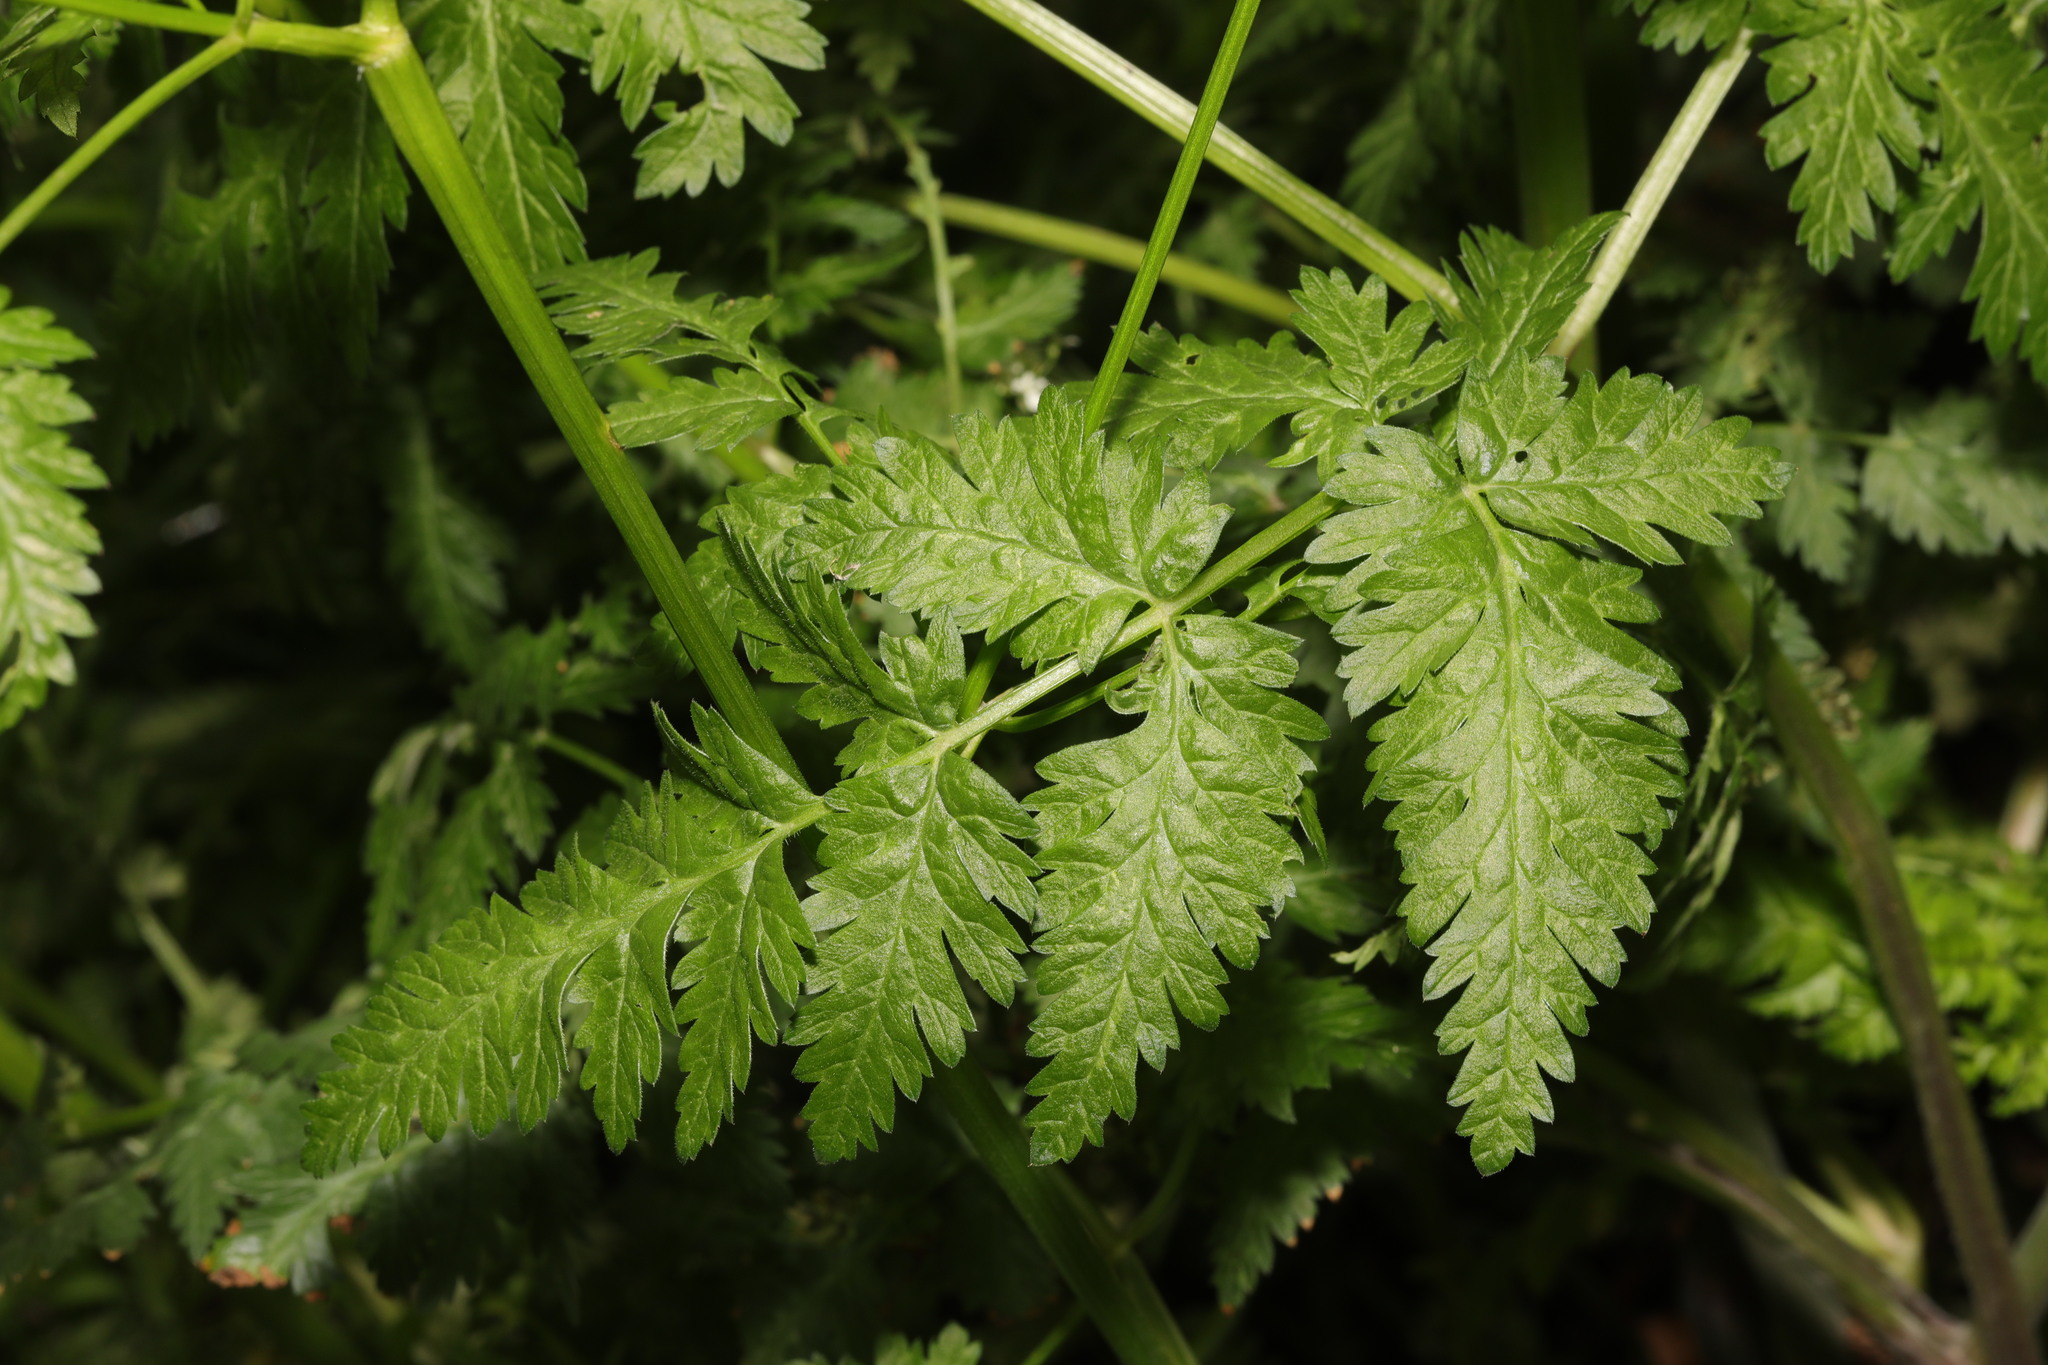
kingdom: Plantae
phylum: Tracheophyta
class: Magnoliopsida
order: Apiales
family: Apiaceae
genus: Anthriscus
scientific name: Anthriscus sylvestris
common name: Cow parsley
